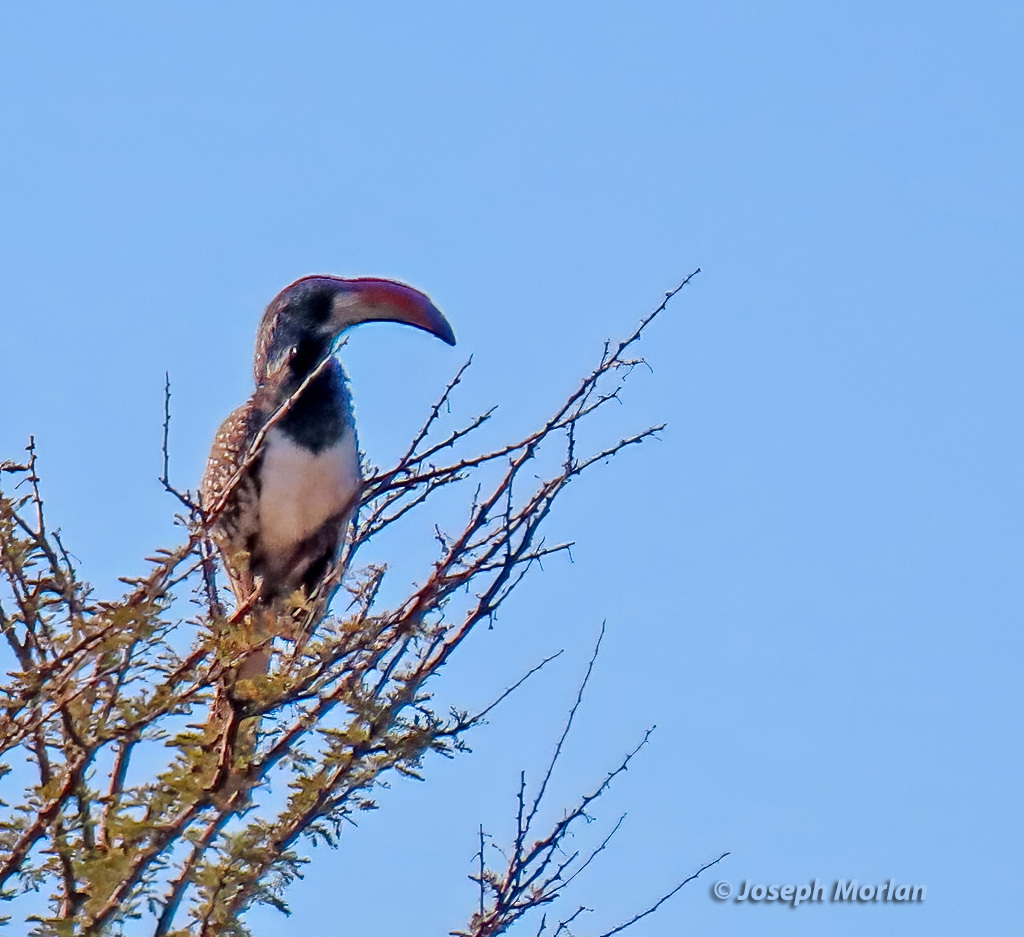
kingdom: Animalia
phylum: Chordata
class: Aves
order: Bucerotiformes
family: Bucerotidae
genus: Tockus
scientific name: Tockus monteiri
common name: Monteiro's hornbill
